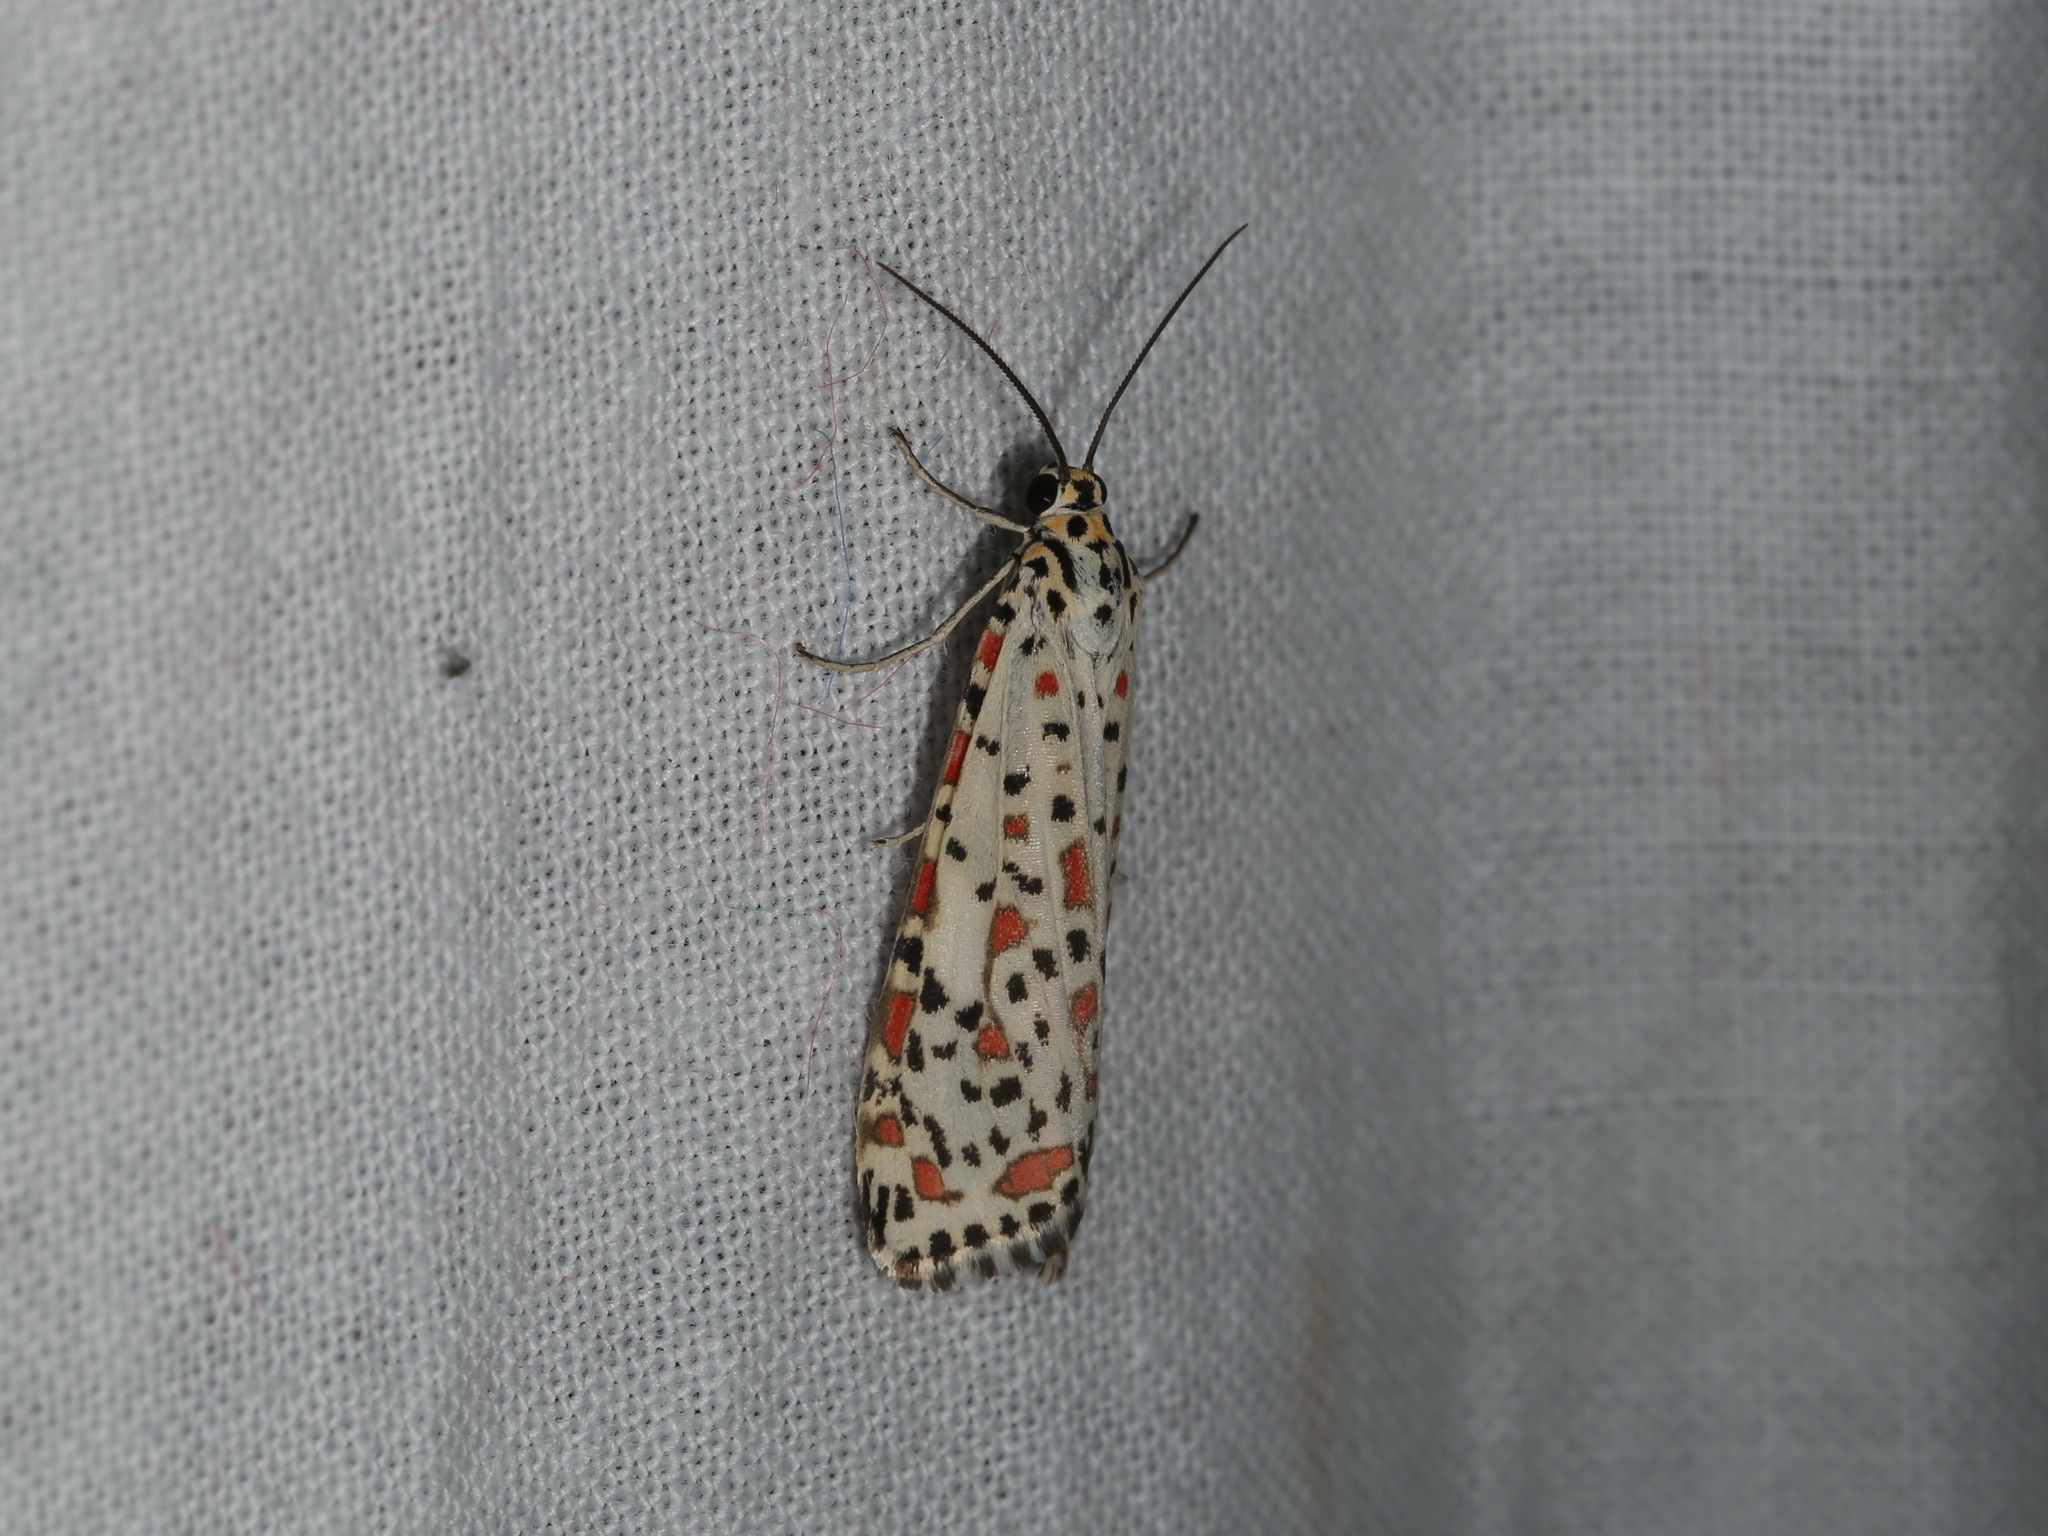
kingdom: Animalia
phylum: Arthropoda
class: Insecta
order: Lepidoptera
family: Erebidae
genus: Utetheisa
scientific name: Utetheisa pulchelloides
